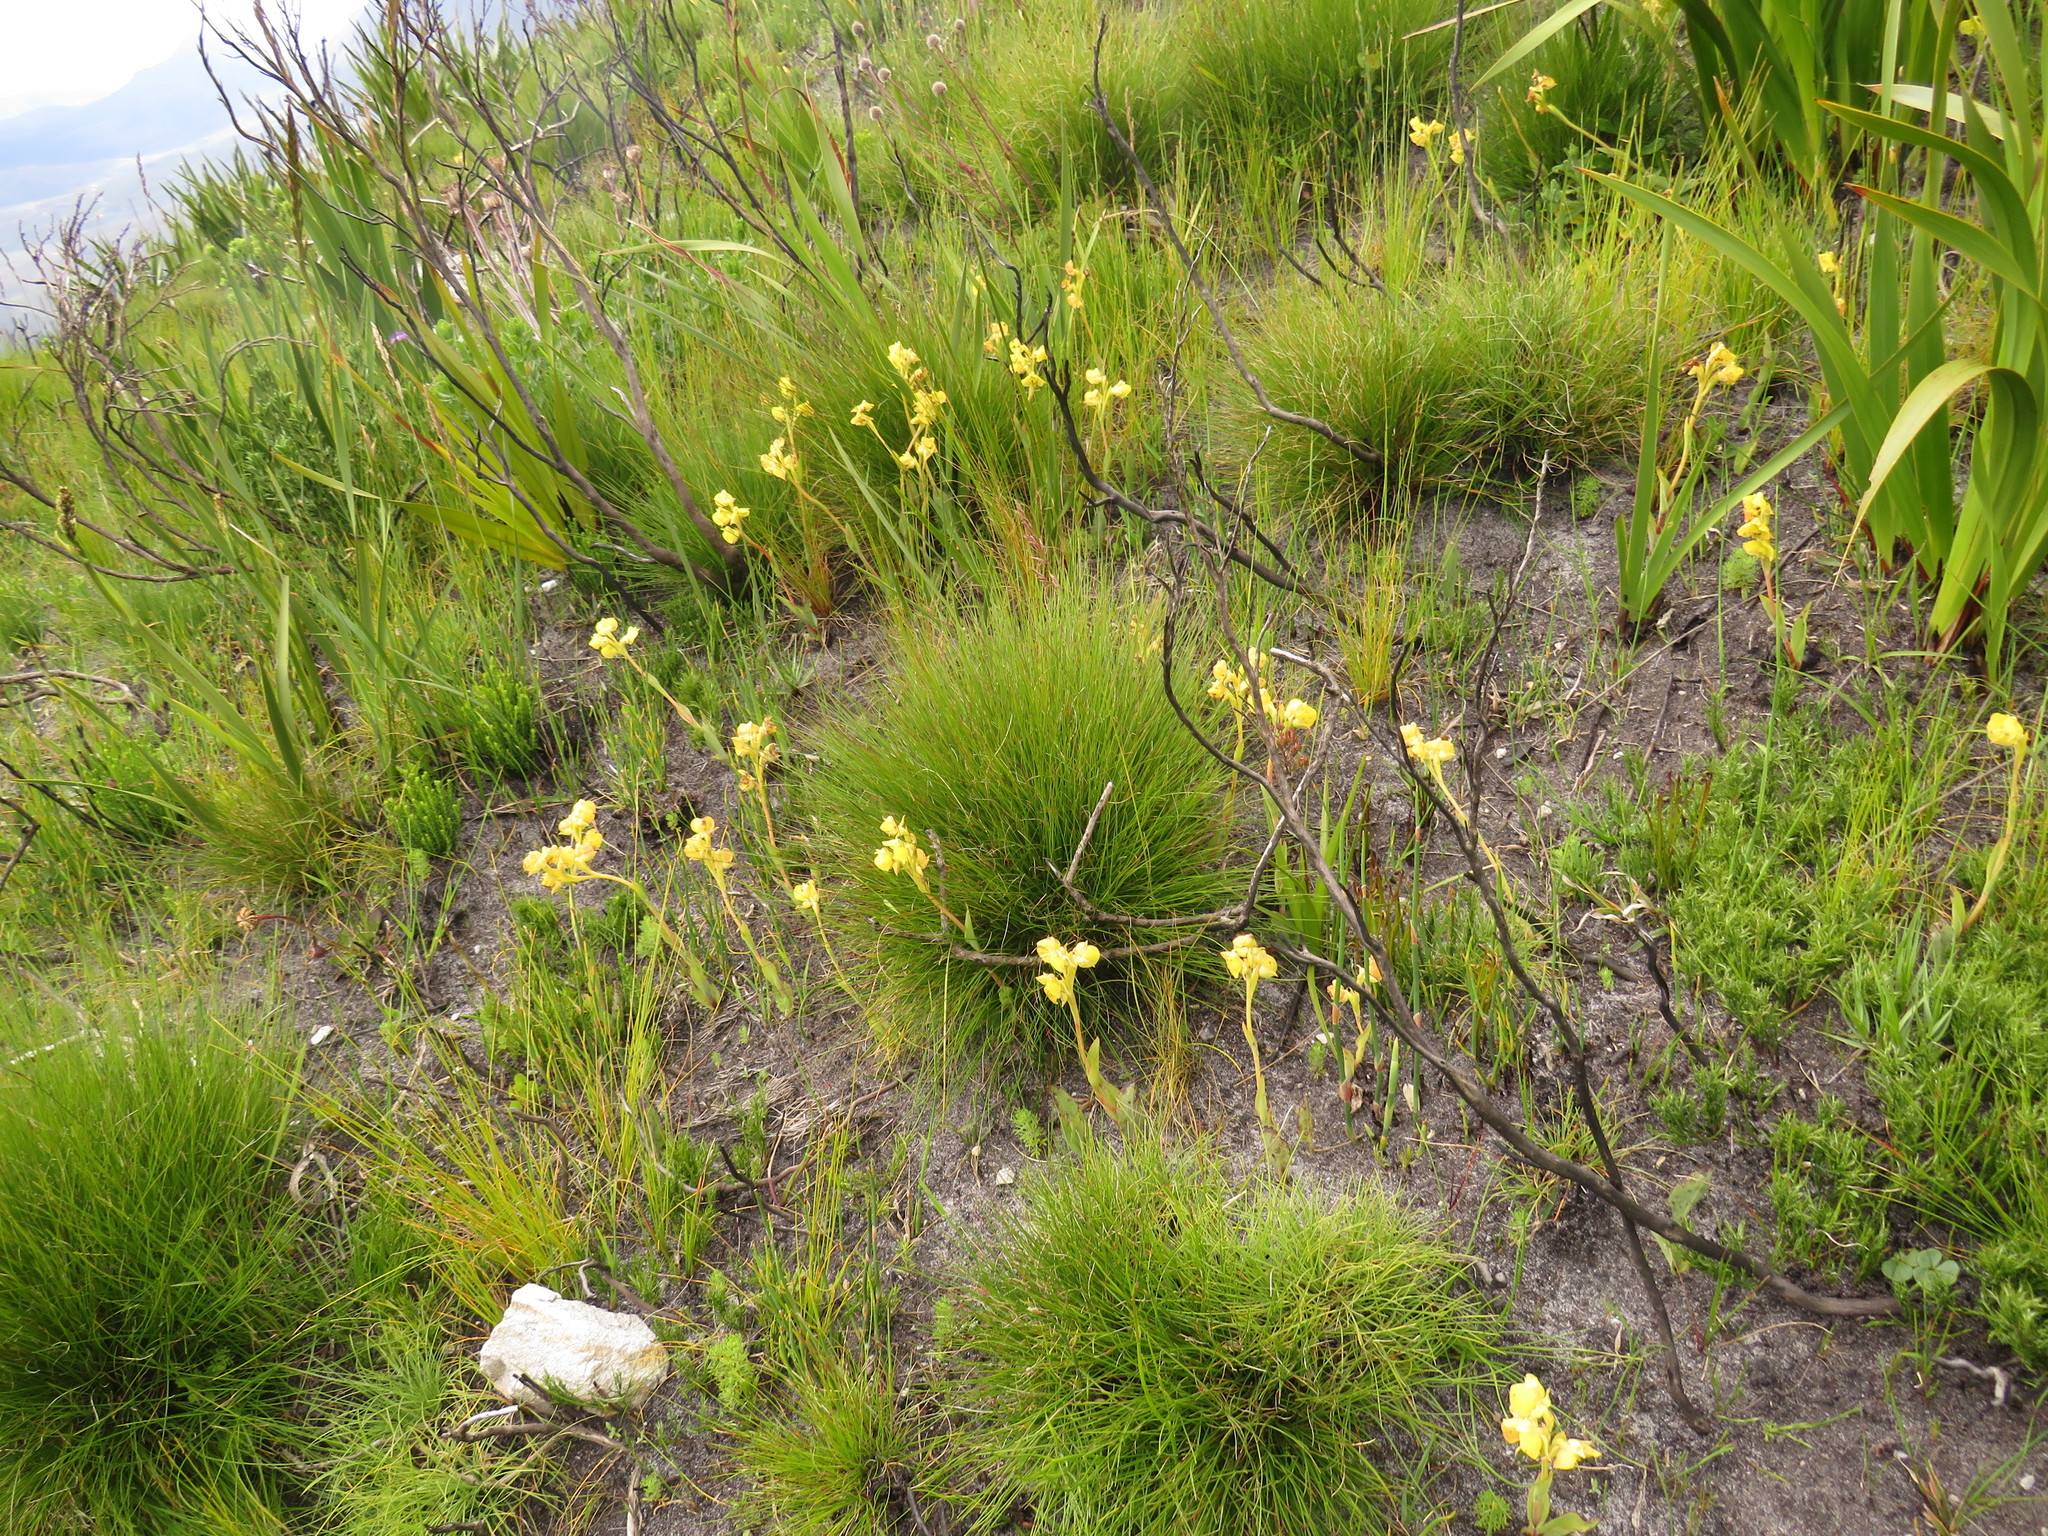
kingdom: Plantae
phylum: Tracheophyta
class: Liliopsida
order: Asparagales
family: Orchidaceae
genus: Pterygodium
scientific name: Pterygodium acutifolium
